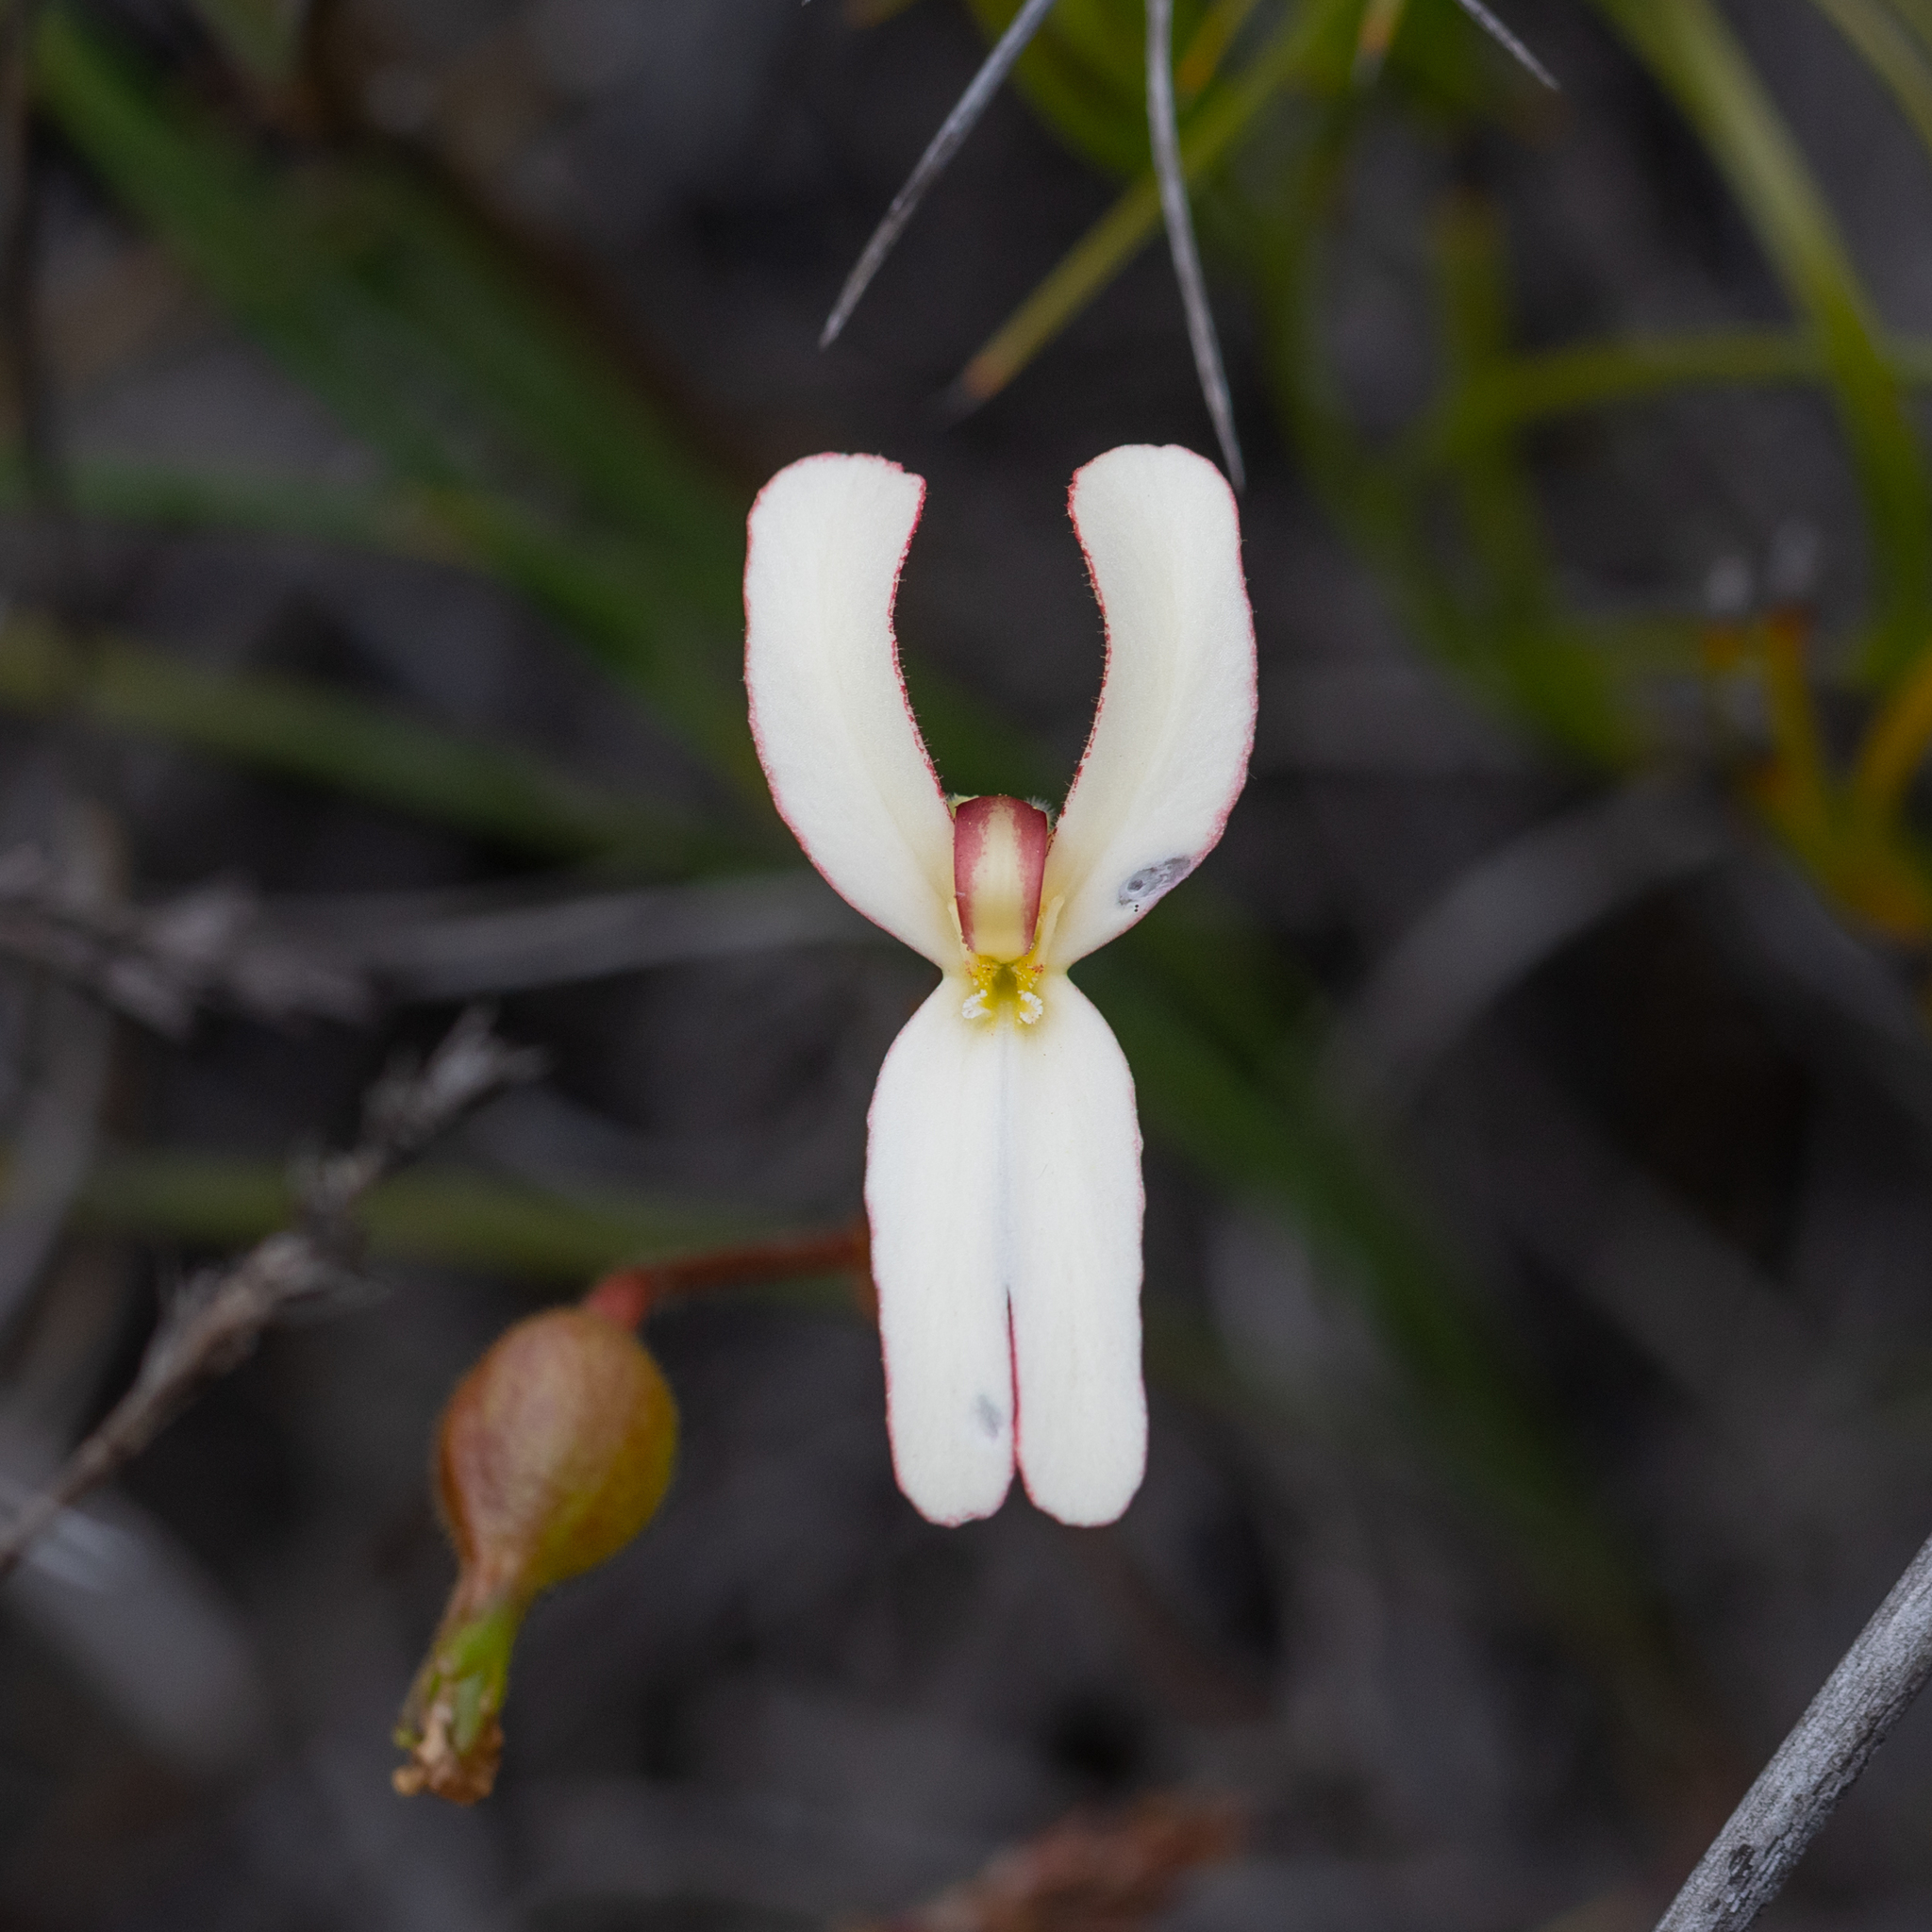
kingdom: Plantae
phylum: Tracheophyta
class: Magnoliopsida
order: Asterales
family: Stylidiaceae
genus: Stylidium
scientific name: Stylidium schoenoides
